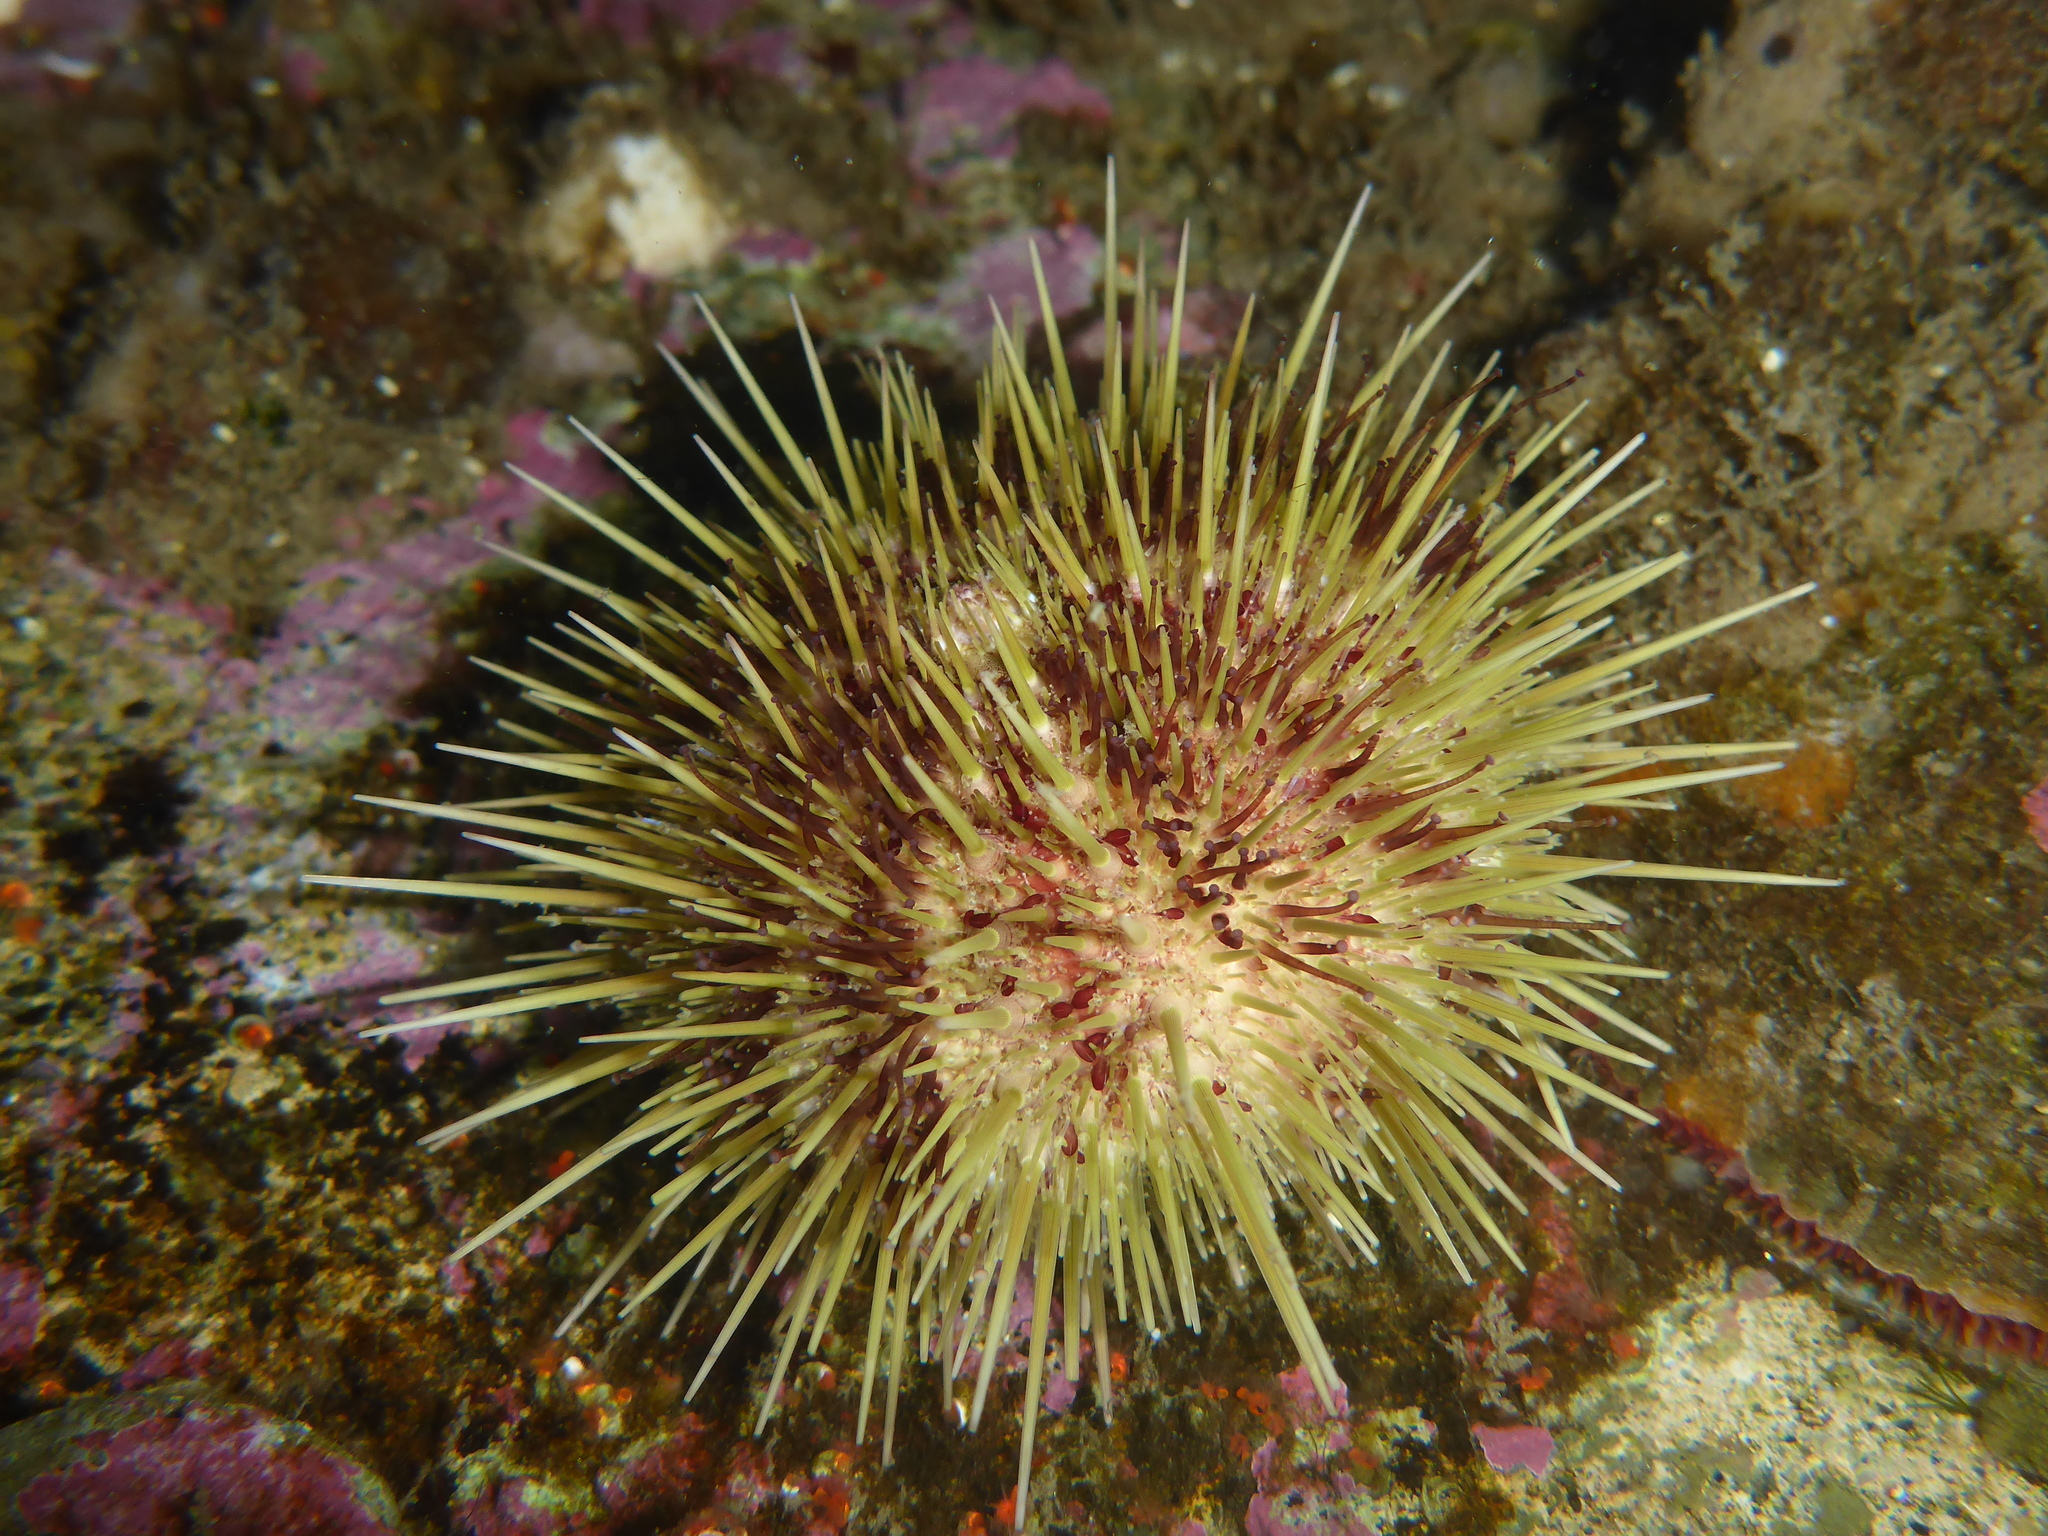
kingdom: Animalia
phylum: Echinodermata
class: Echinoidea
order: Camarodonta
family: Strongylocentrotidae
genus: Strongylocentrotus
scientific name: Strongylocentrotus droebachiensis
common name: Northern sea urchin
